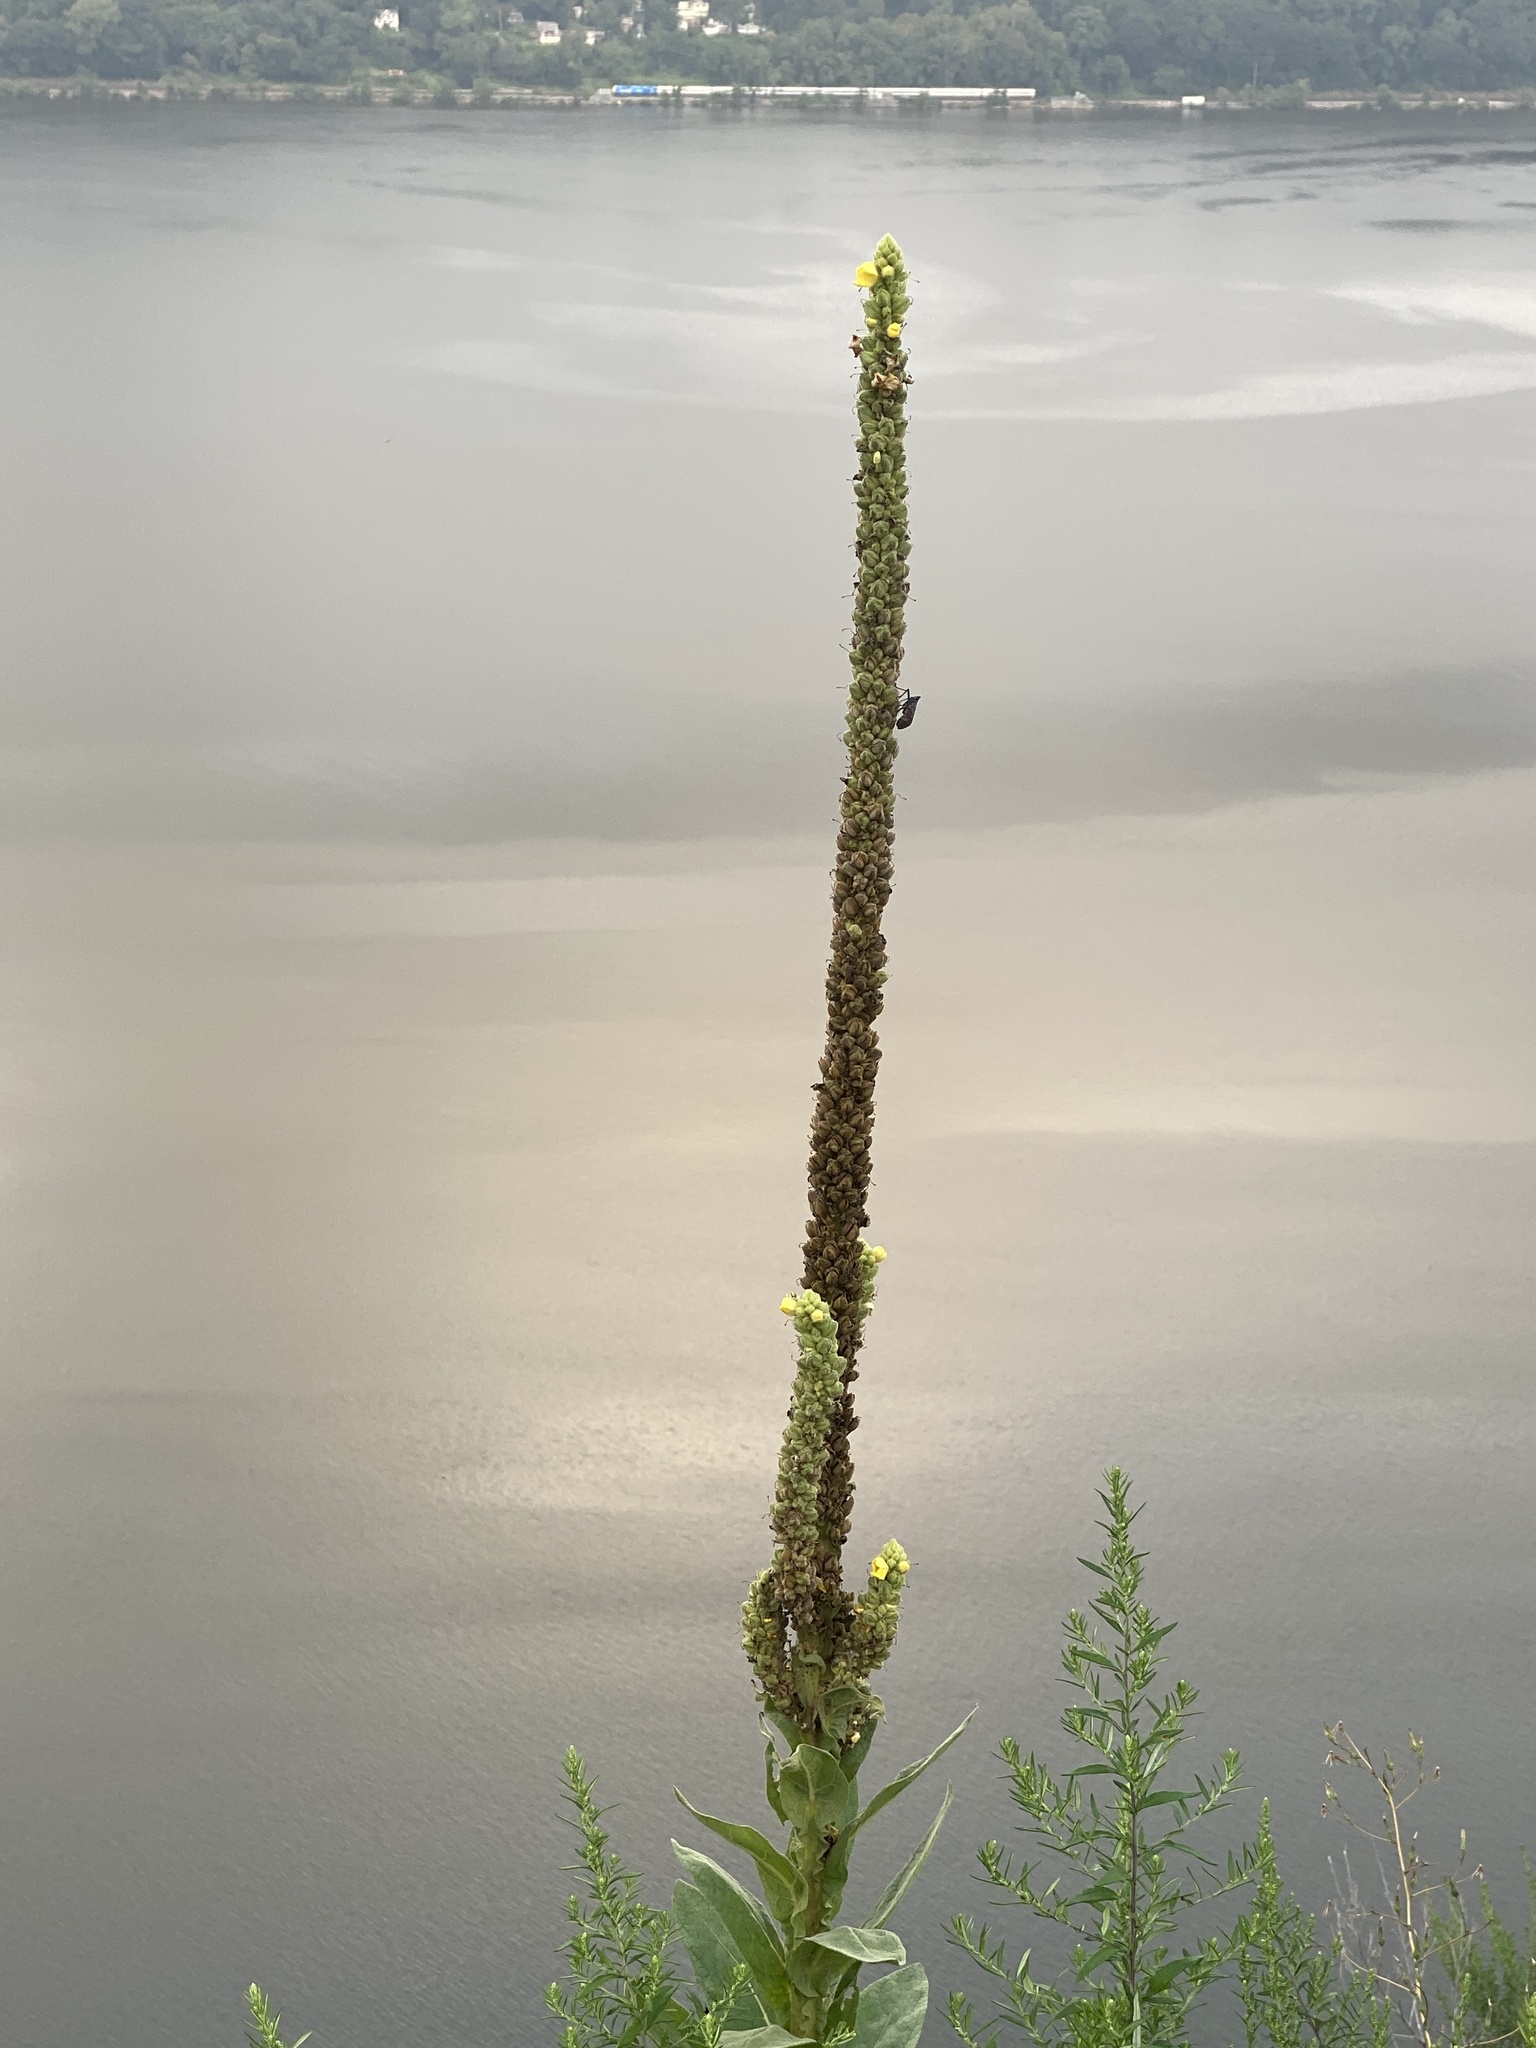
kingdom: Plantae
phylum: Tracheophyta
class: Magnoliopsida
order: Lamiales
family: Scrophulariaceae
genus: Verbascum
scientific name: Verbascum thapsus
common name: Common mullein
